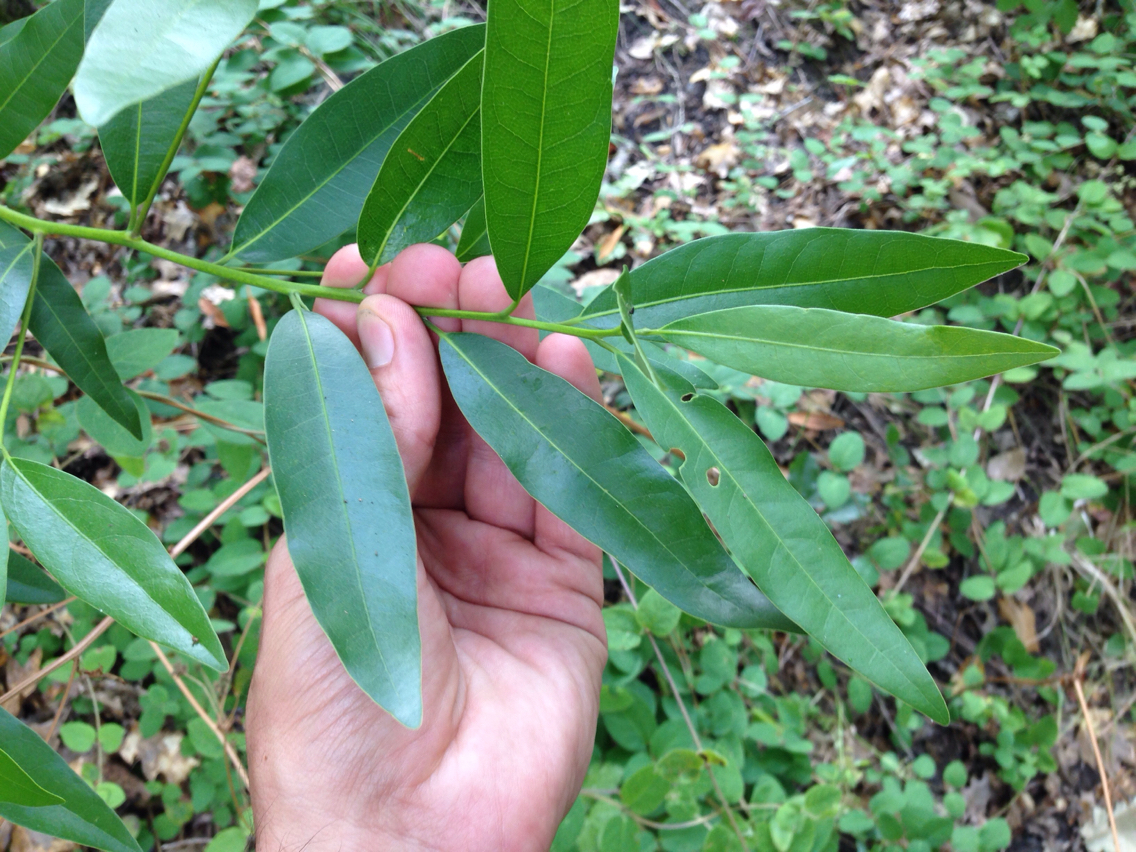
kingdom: Plantae
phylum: Tracheophyta
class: Magnoliopsida
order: Laurales
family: Lauraceae
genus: Umbellularia
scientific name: Umbellularia californica
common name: California bay
